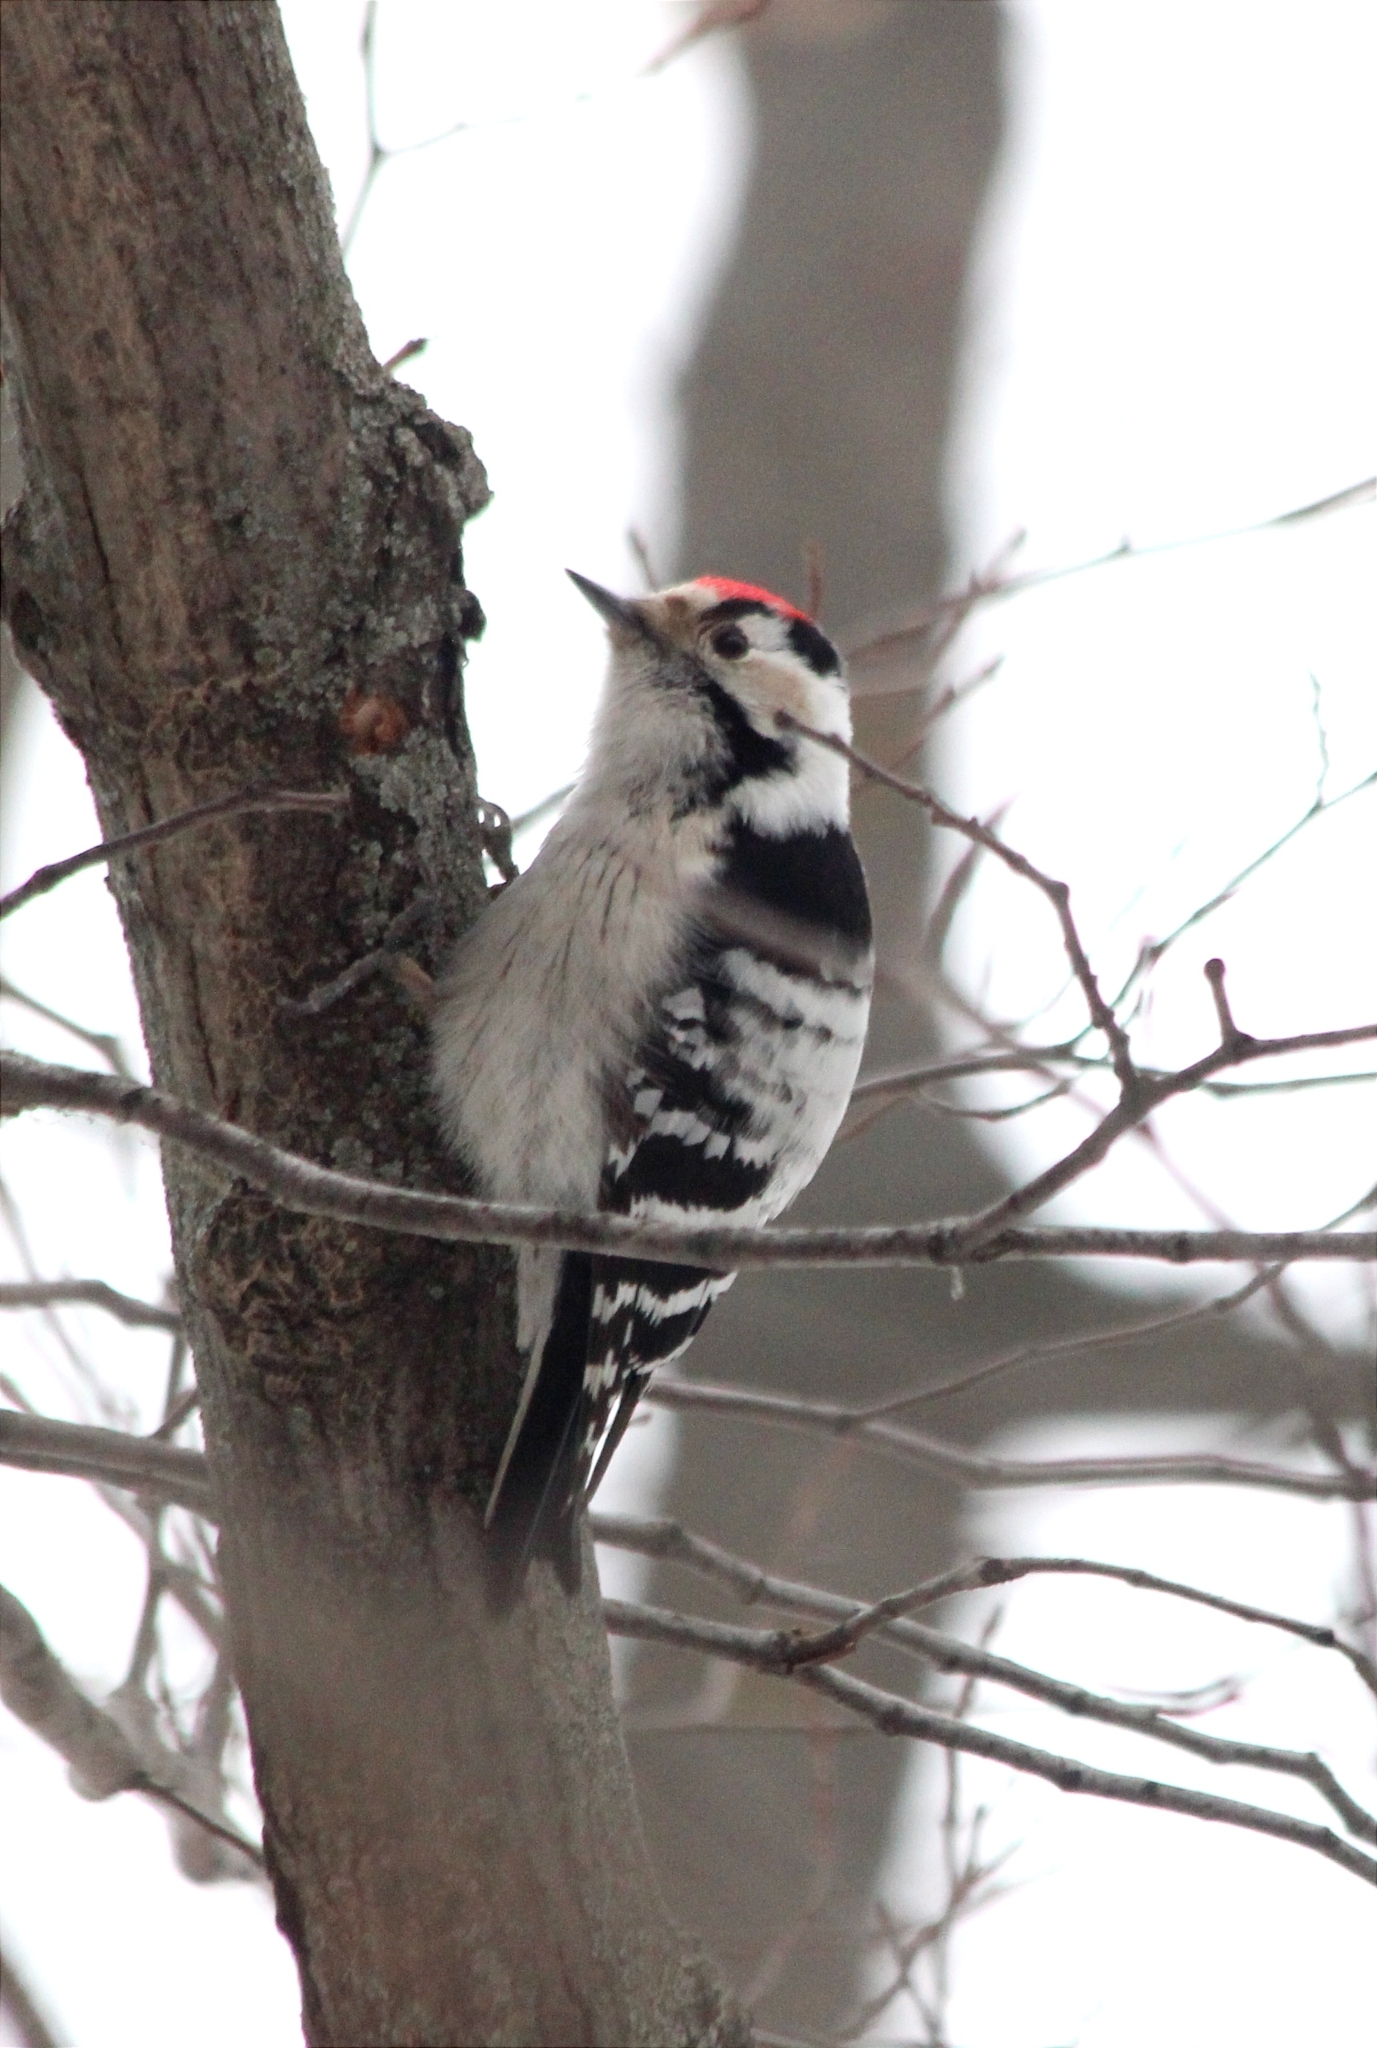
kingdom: Animalia
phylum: Chordata
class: Aves
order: Piciformes
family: Picidae
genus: Dryobates
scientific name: Dryobates minor
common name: Lesser spotted woodpecker
